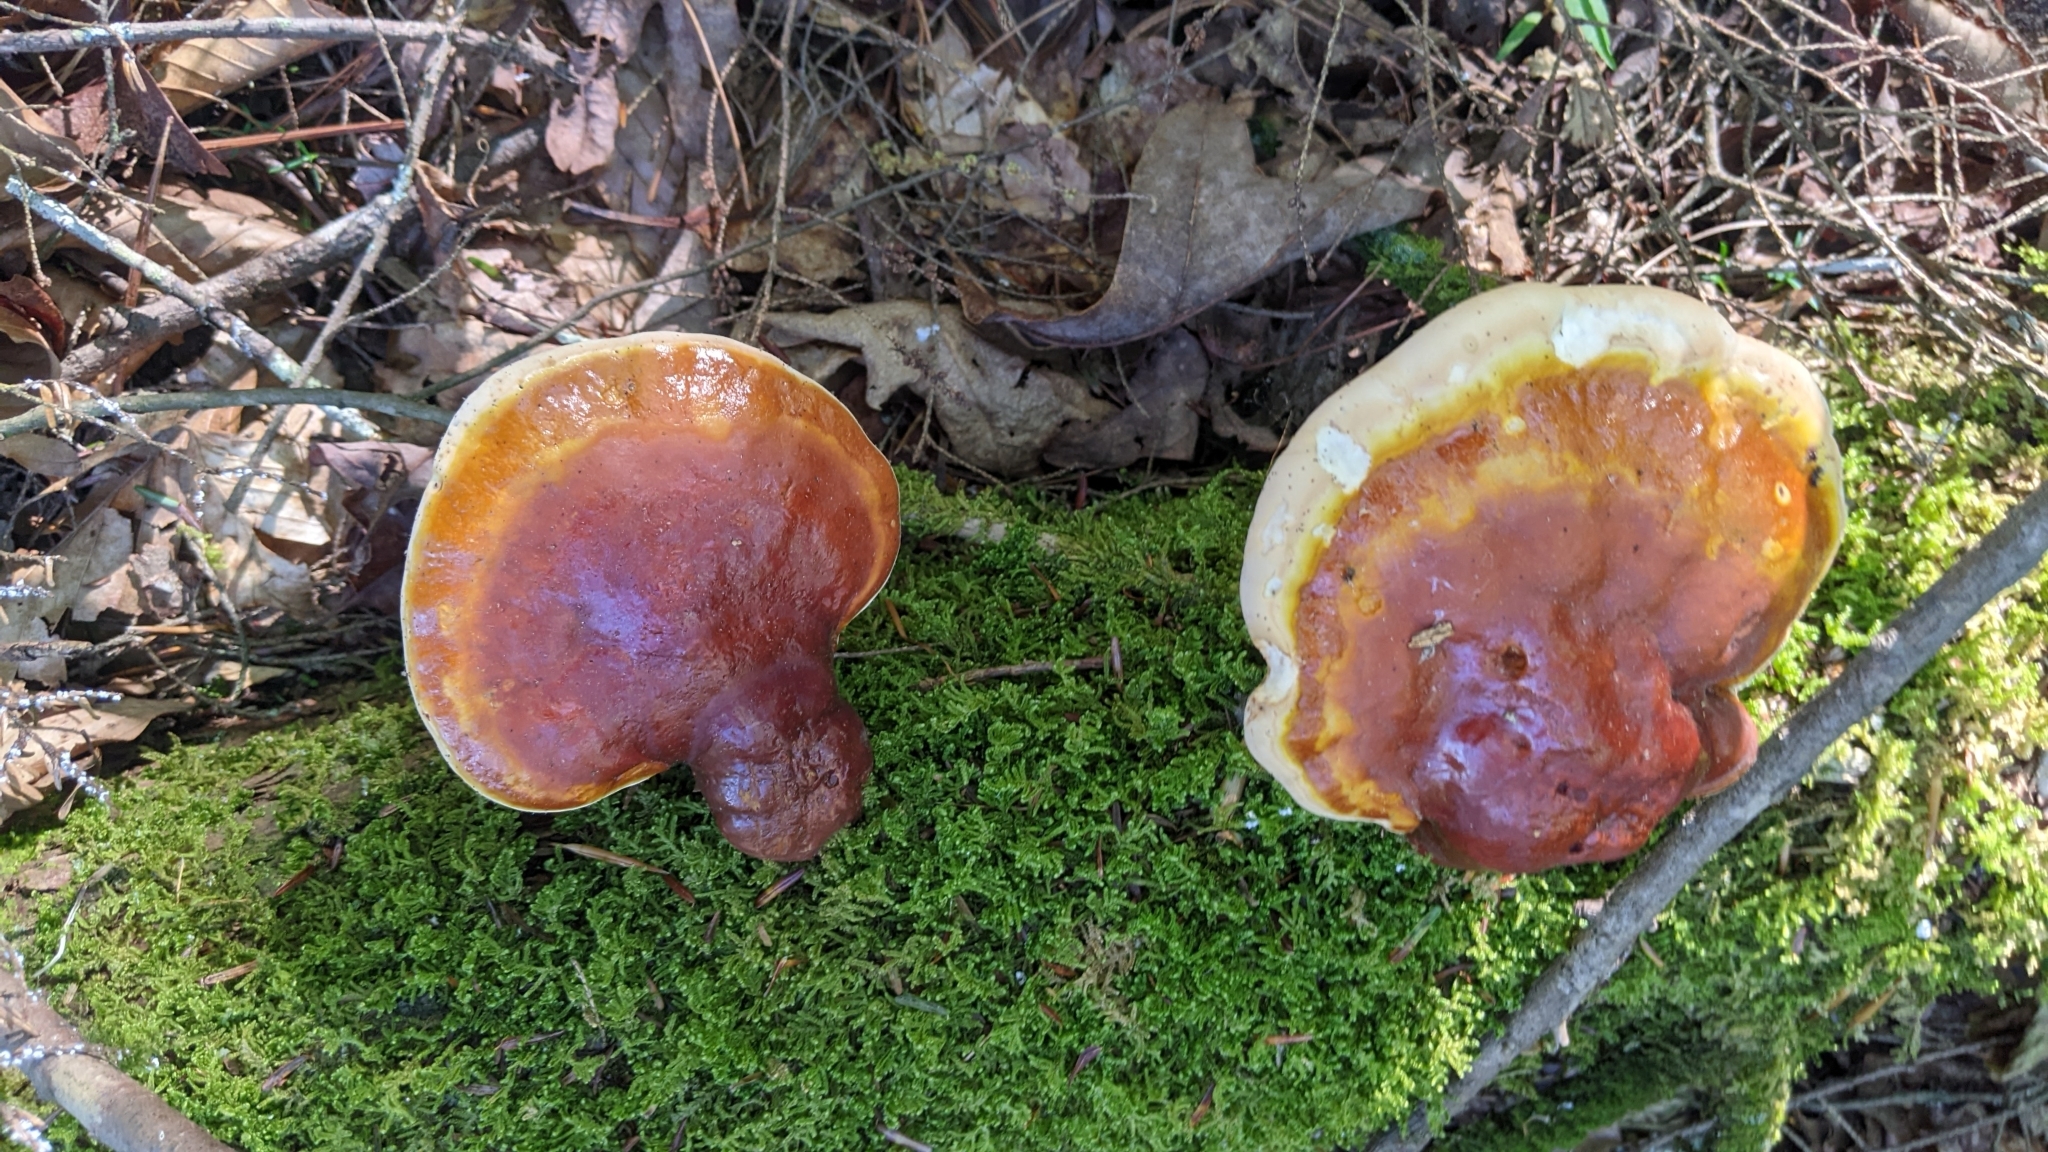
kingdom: Fungi
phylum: Basidiomycota
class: Agaricomycetes
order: Polyporales
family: Polyporaceae
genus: Ganoderma
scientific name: Ganoderma tsugae
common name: Hemlock varnish shelf
